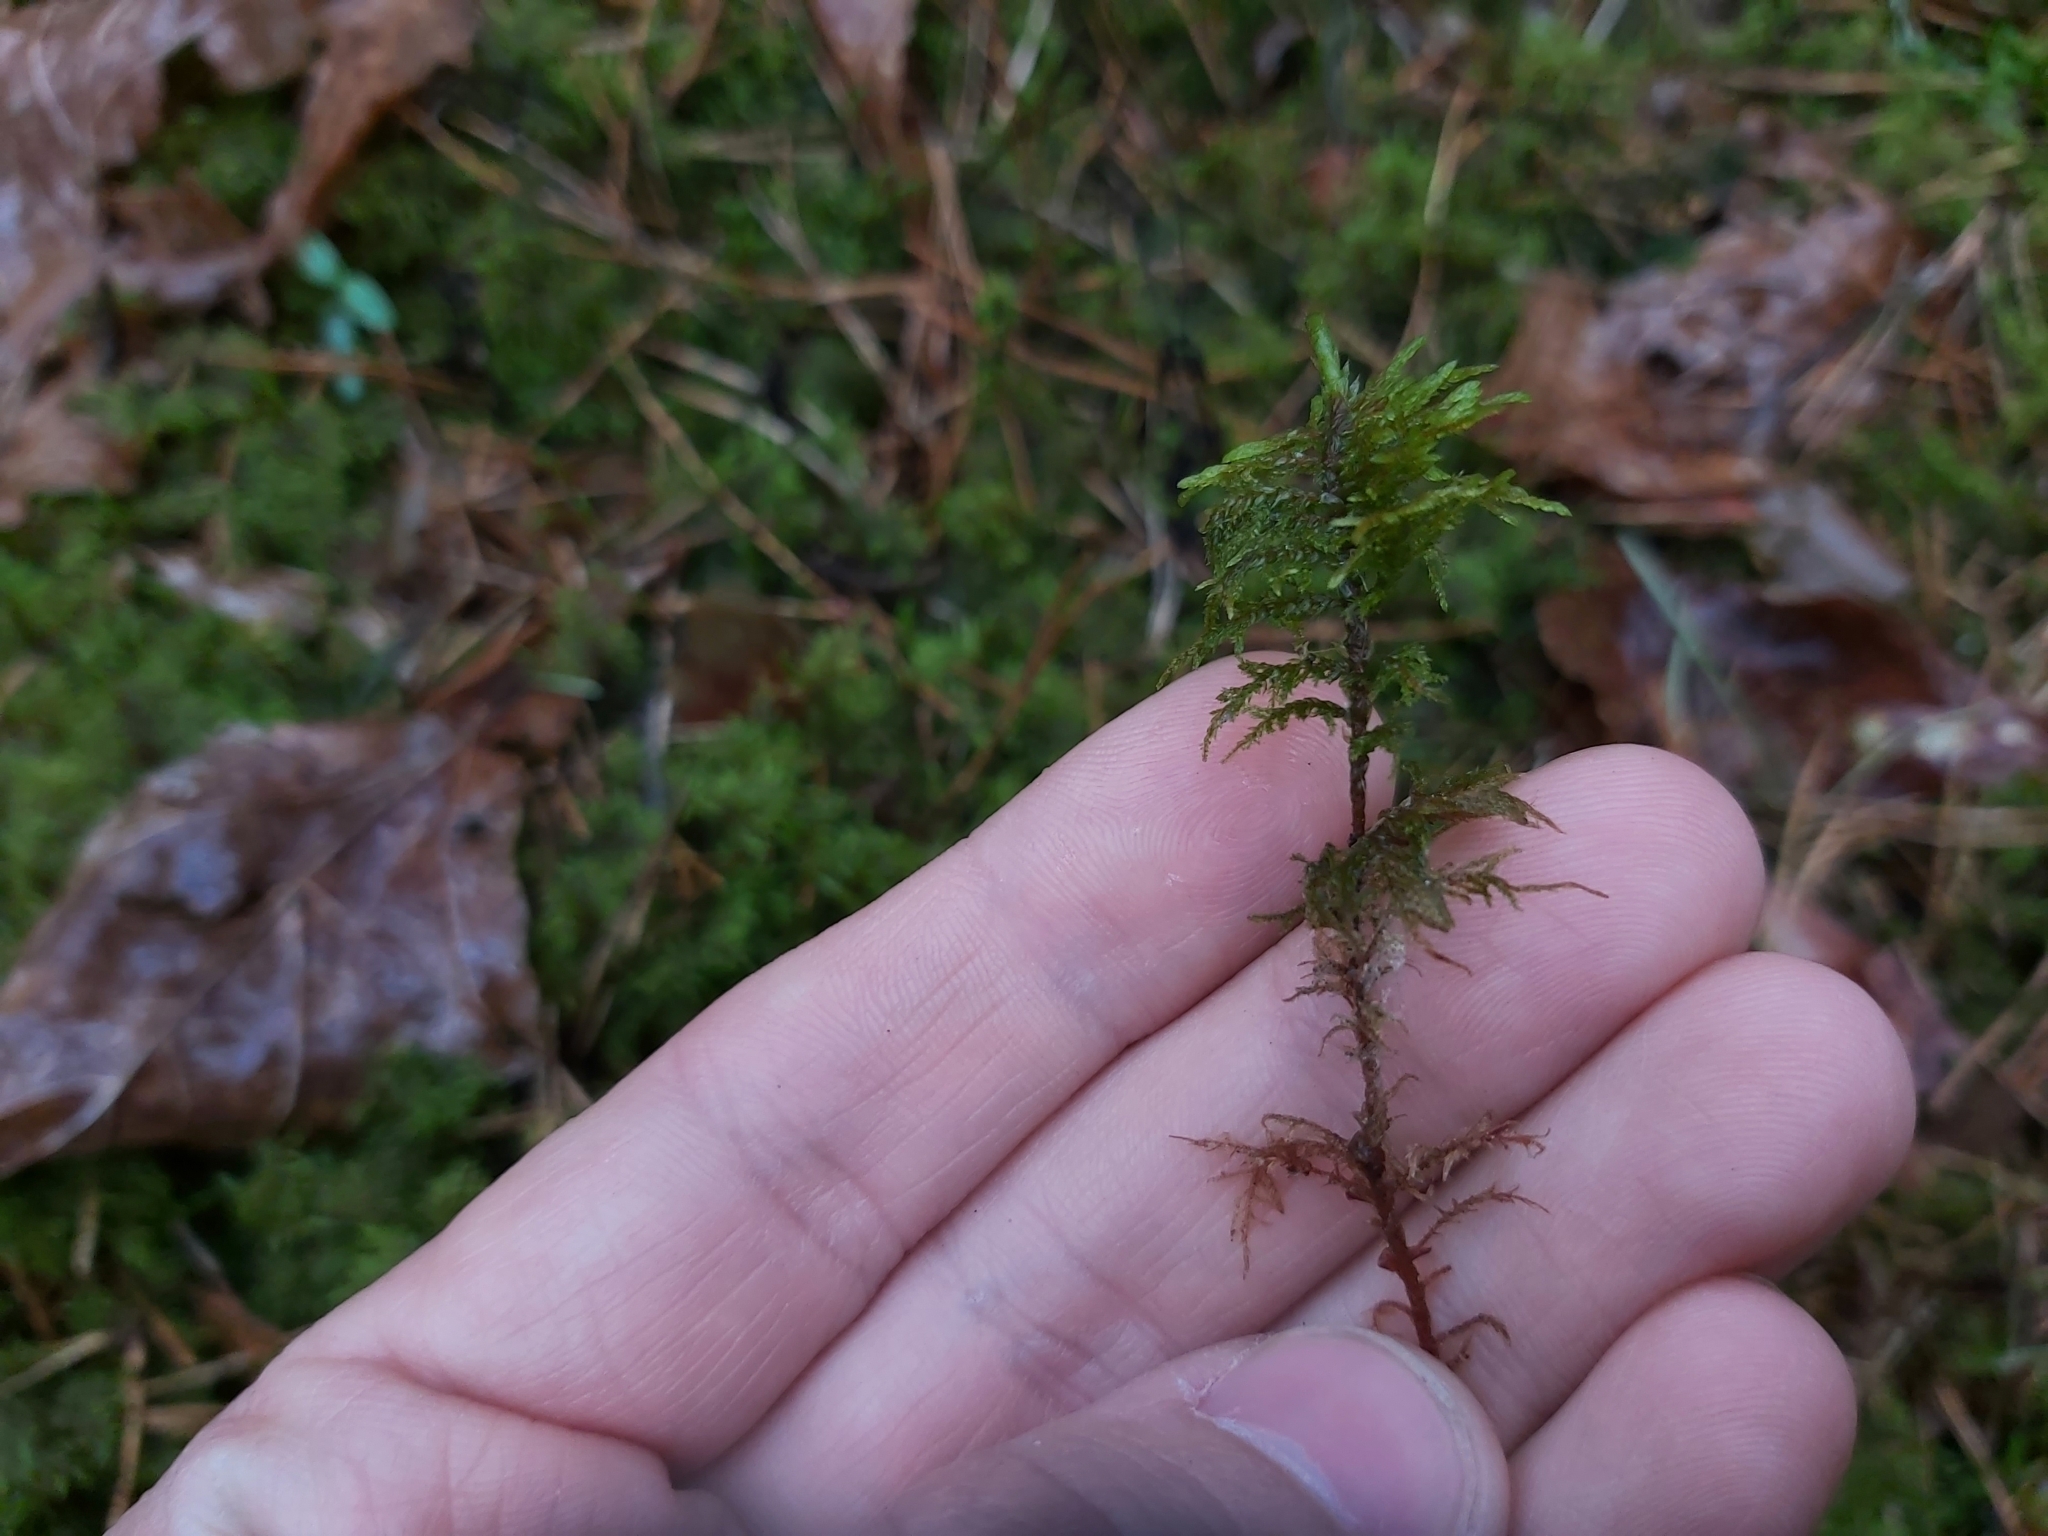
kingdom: Plantae
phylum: Bryophyta
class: Bryopsida
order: Hypnales
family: Hylocomiaceae
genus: Hylocomium
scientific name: Hylocomium splendens
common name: Stairstep moss
